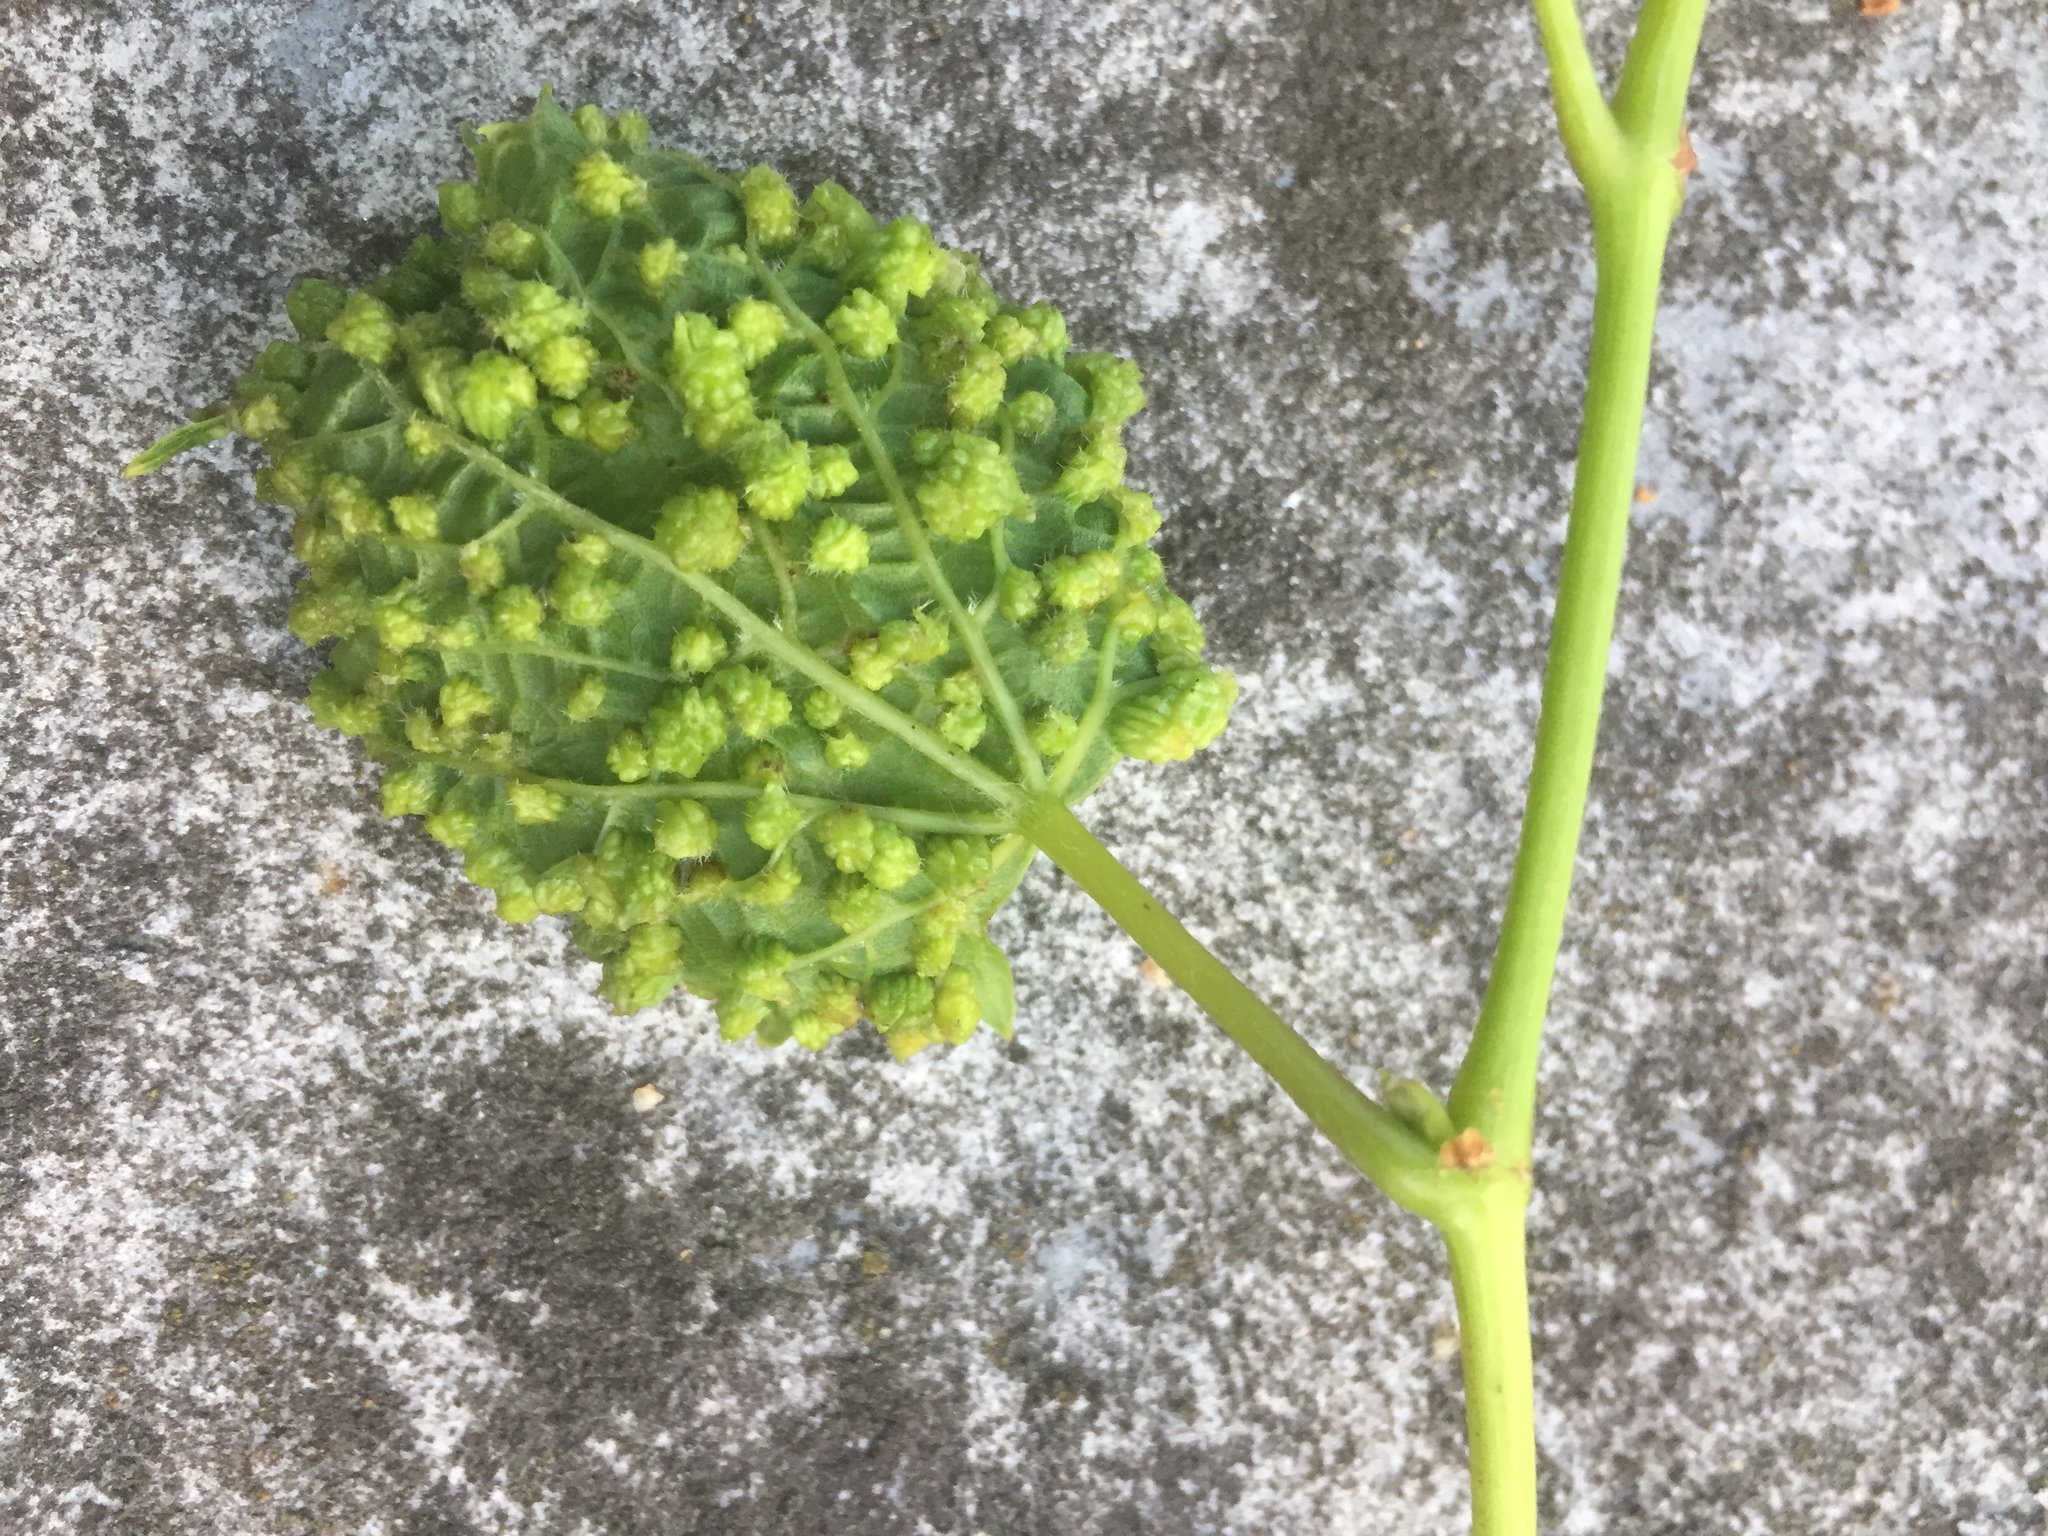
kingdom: Plantae
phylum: Tracheophyta
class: Magnoliopsida
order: Vitales
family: Vitaceae
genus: Vitis
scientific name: Vitis vinifera
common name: Grape-vine
